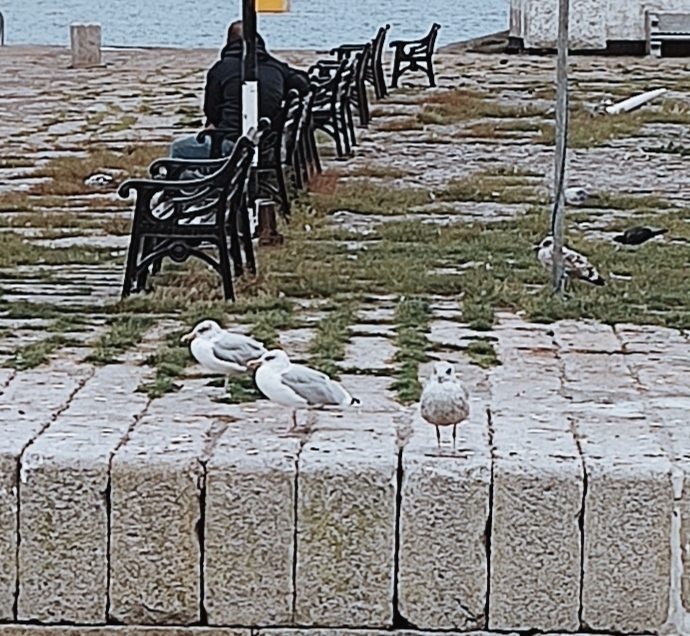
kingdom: Animalia
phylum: Chordata
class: Aves
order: Charadriiformes
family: Laridae
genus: Larus
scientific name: Larus argentatus
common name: Herring gull
